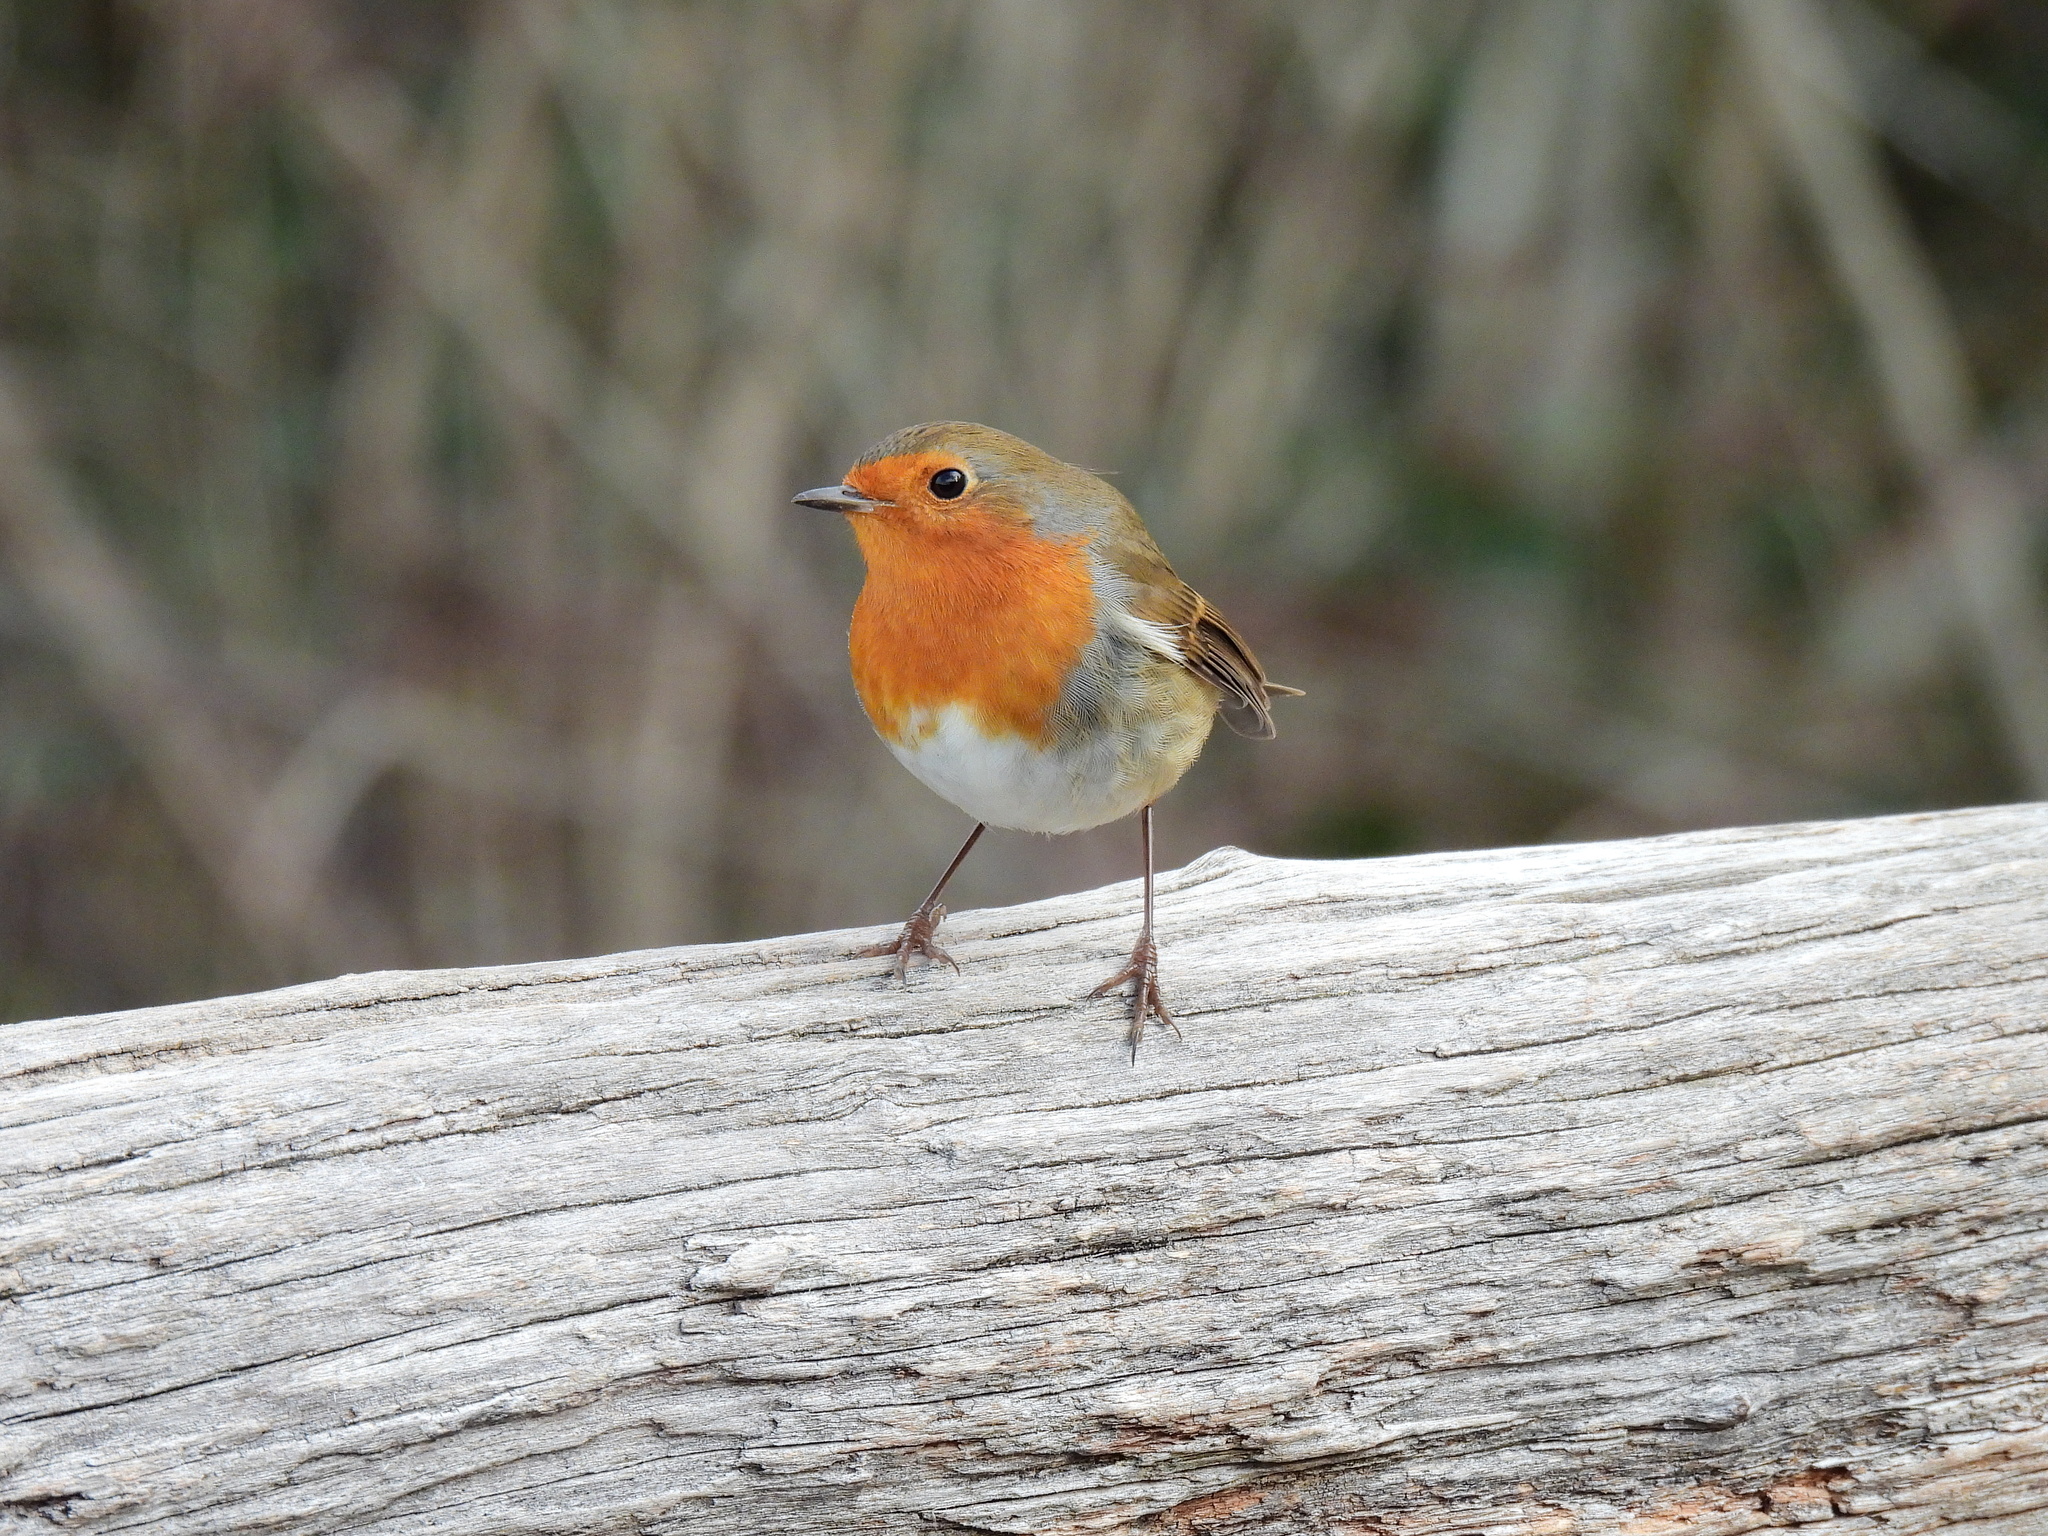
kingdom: Animalia
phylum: Chordata
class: Aves
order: Passeriformes
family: Muscicapidae
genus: Erithacus
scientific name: Erithacus rubecula
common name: European robin
